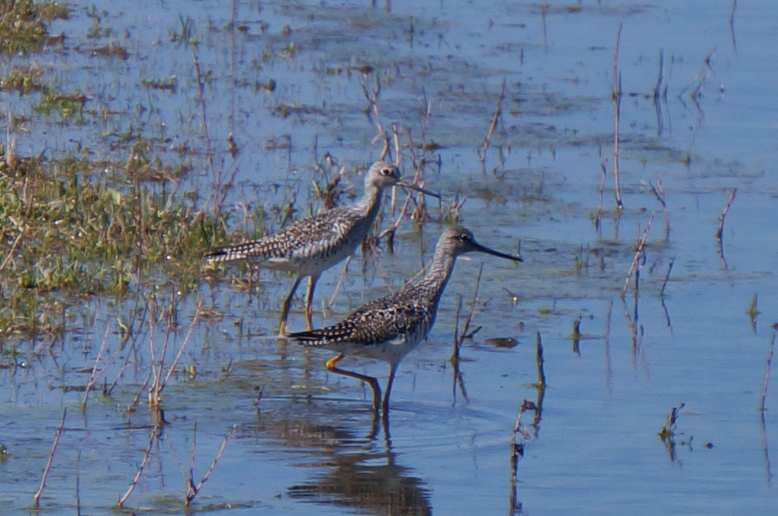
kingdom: Animalia
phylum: Chordata
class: Aves
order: Charadriiformes
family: Scolopacidae
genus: Tringa
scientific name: Tringa melanoleuca
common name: Greater yellowlegs
